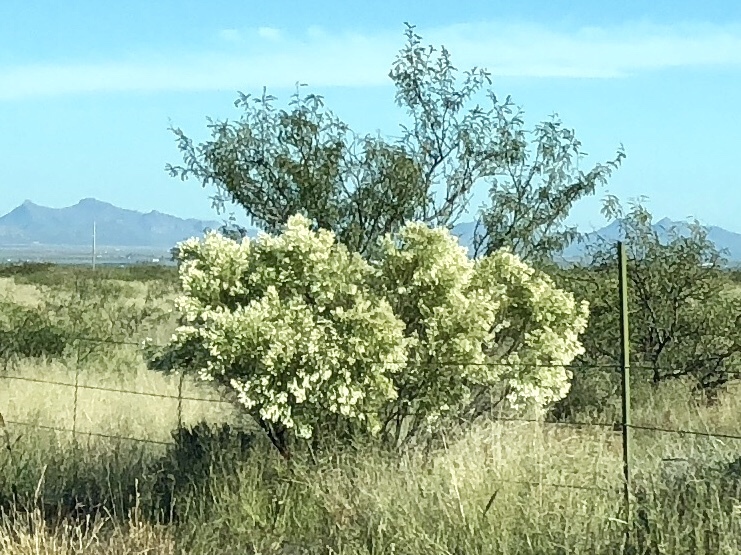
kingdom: Plantae
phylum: Tracheophyta
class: Magnoliopsida
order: Asterales
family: Asteraceae
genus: Baccharis
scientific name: Baccharis sarothroides
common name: Desert-broom
